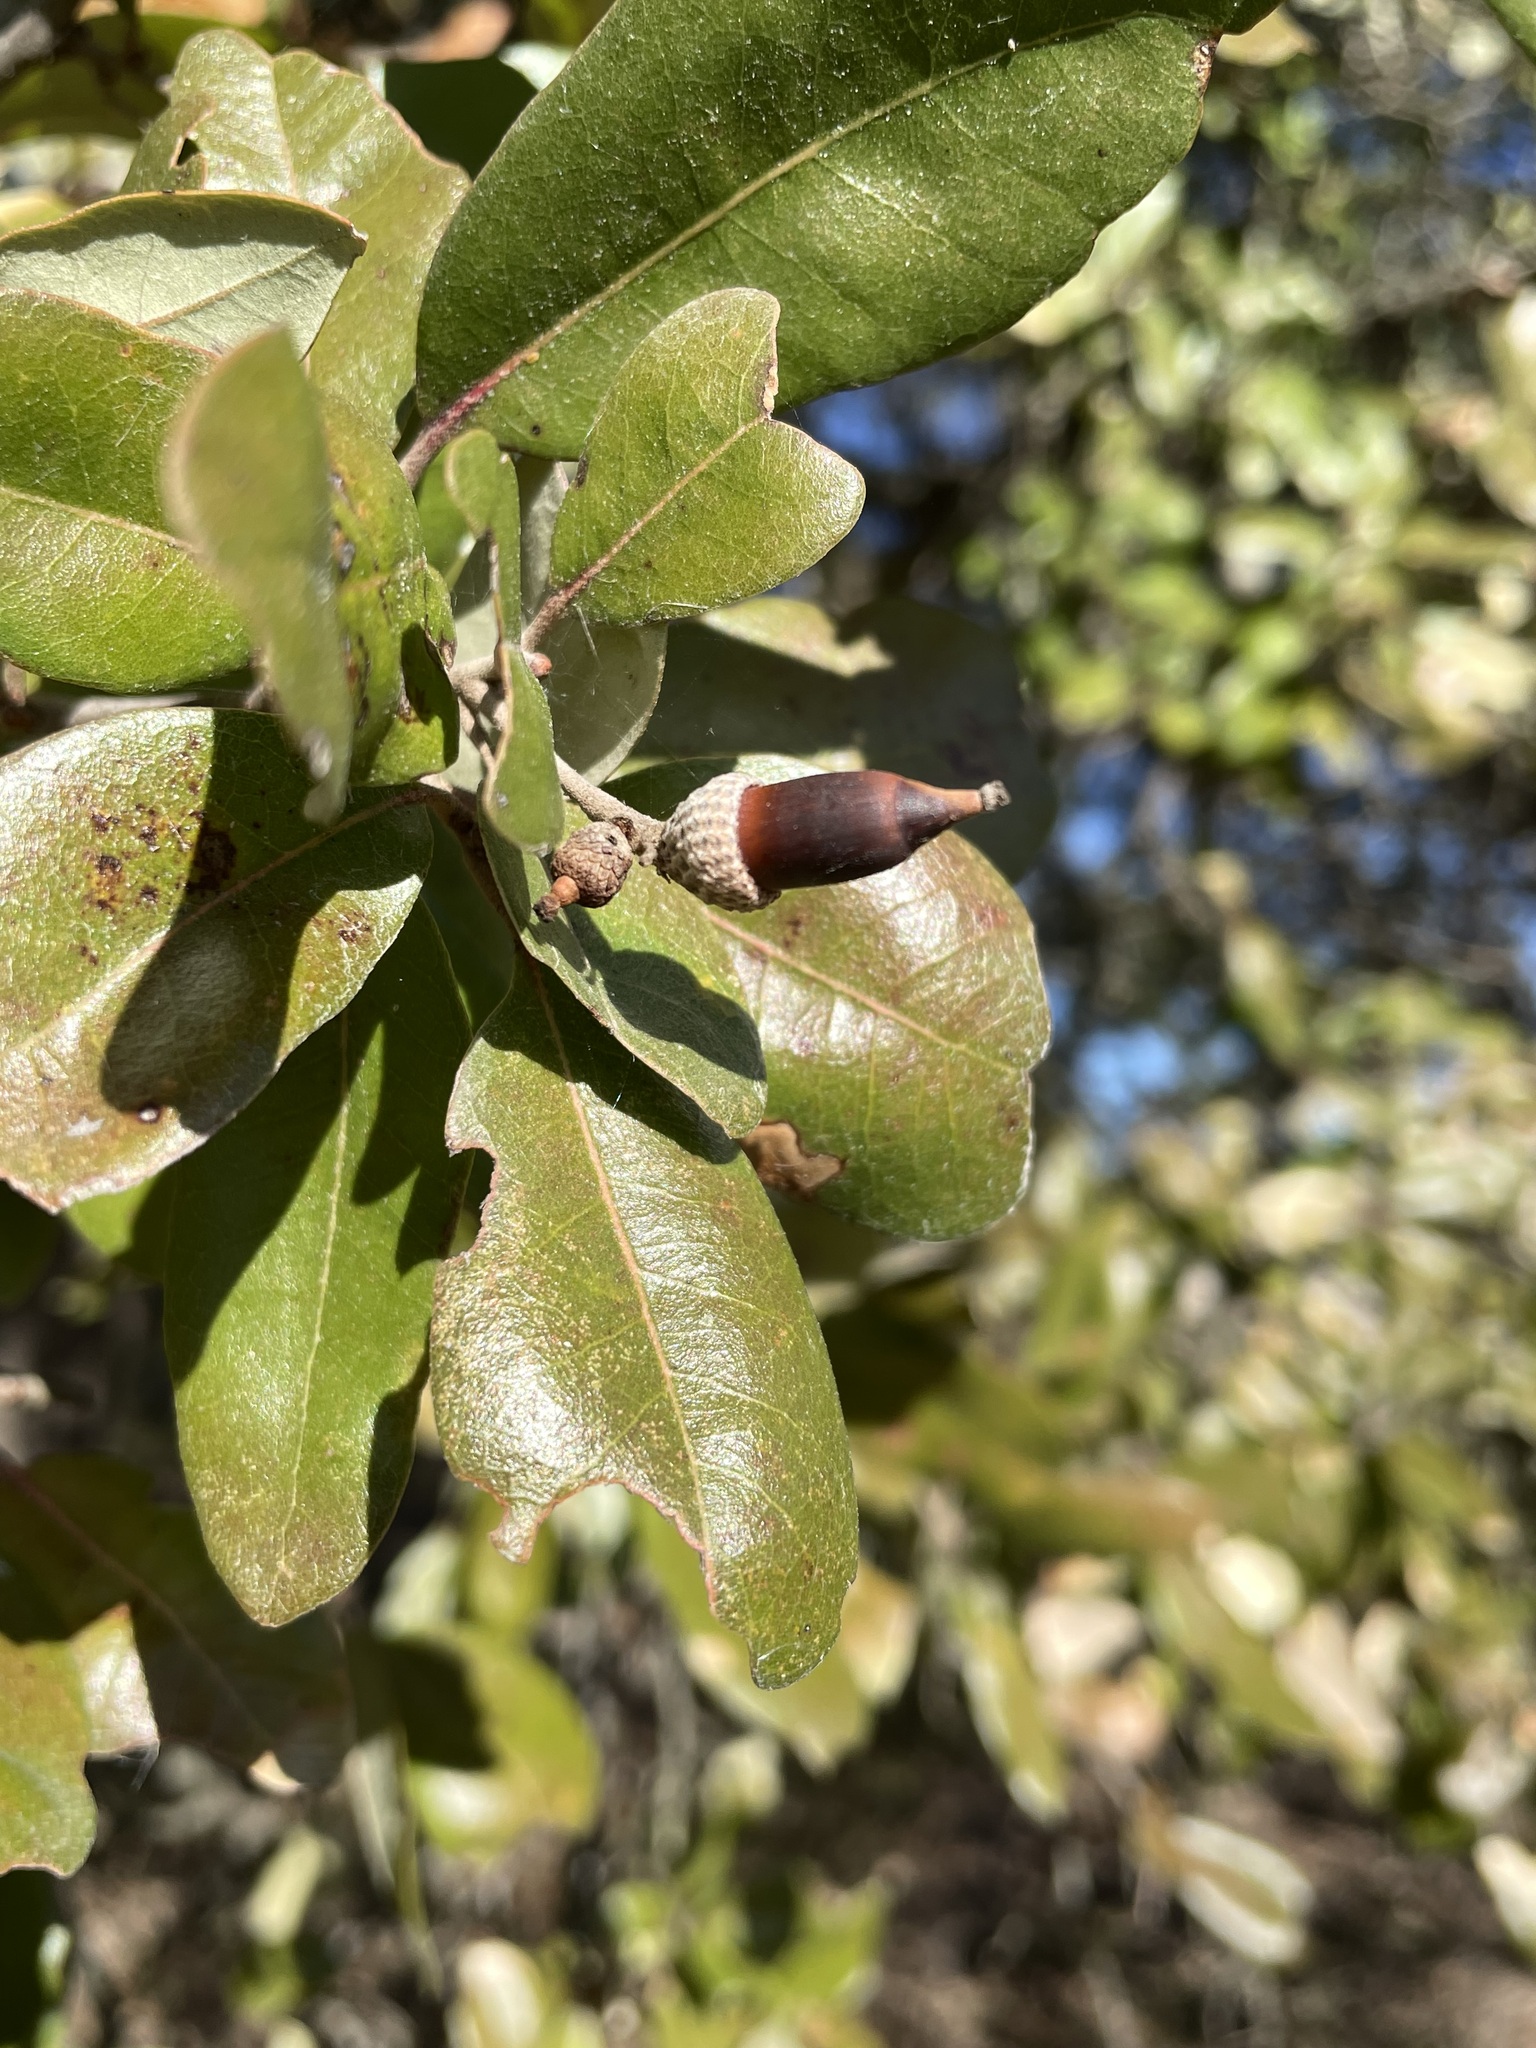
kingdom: Plantae
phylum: Tracheophyta
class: Magnoliopsida
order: Fagales
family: Fagaceae
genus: Quercus
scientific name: Quercus fusiformis
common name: Texas live oak
